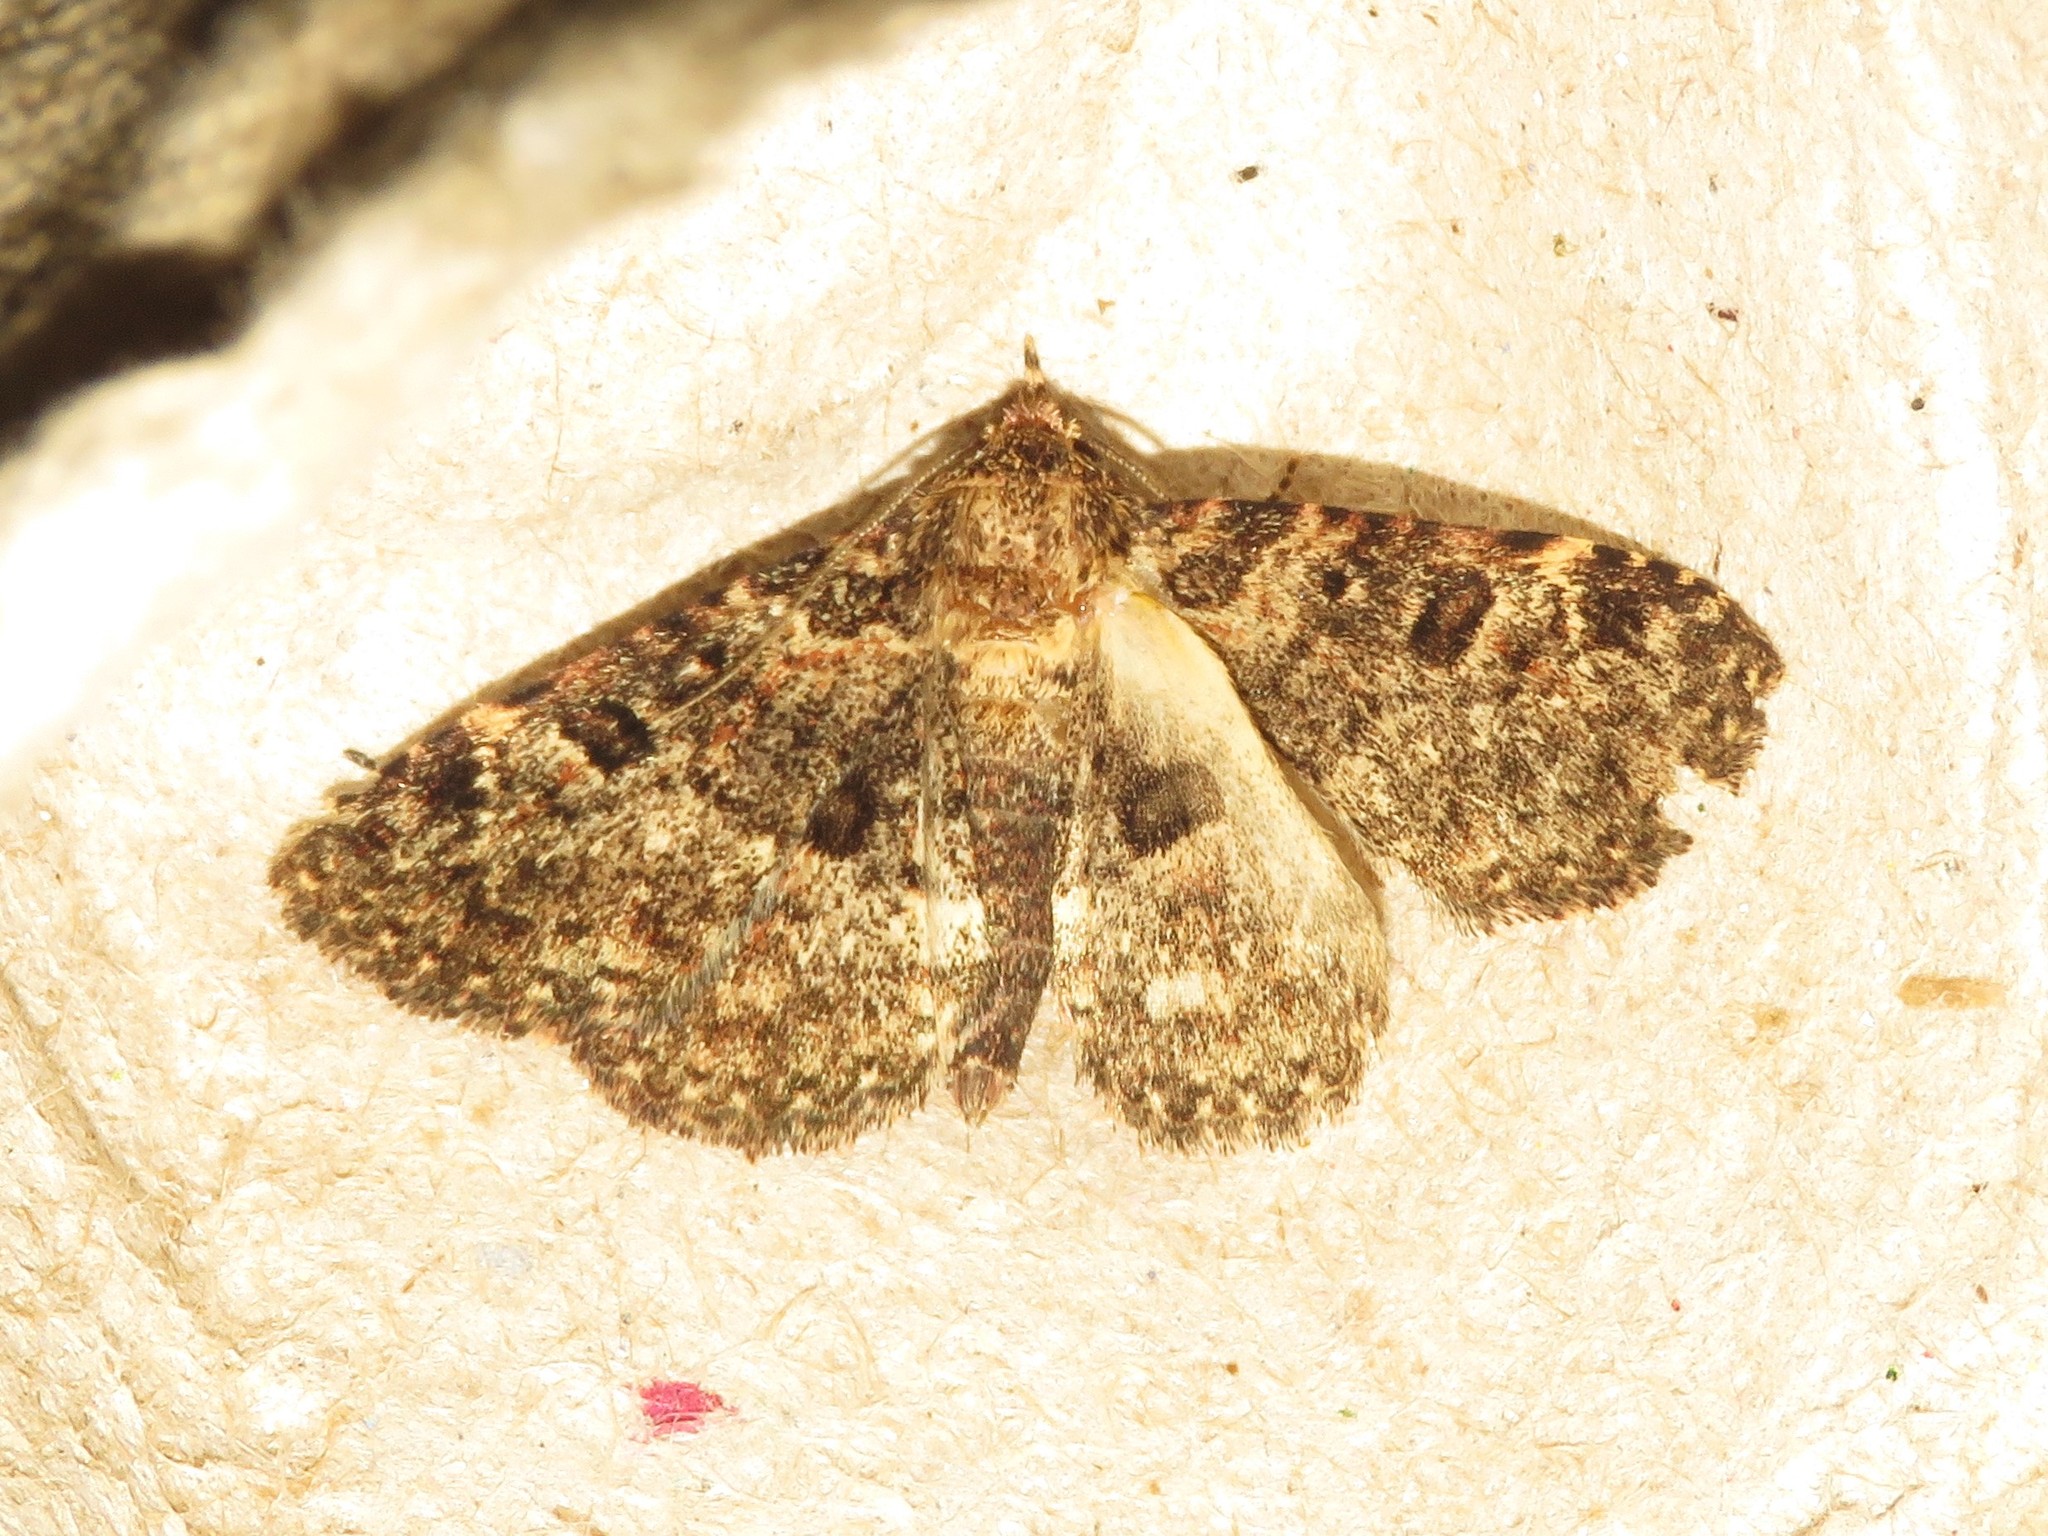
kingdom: Animalia
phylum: Arthropoda
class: Insecta
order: Lepidoptera
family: Erebidae
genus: Metalectra
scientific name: Metalectra discalis
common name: Common fungus moth
